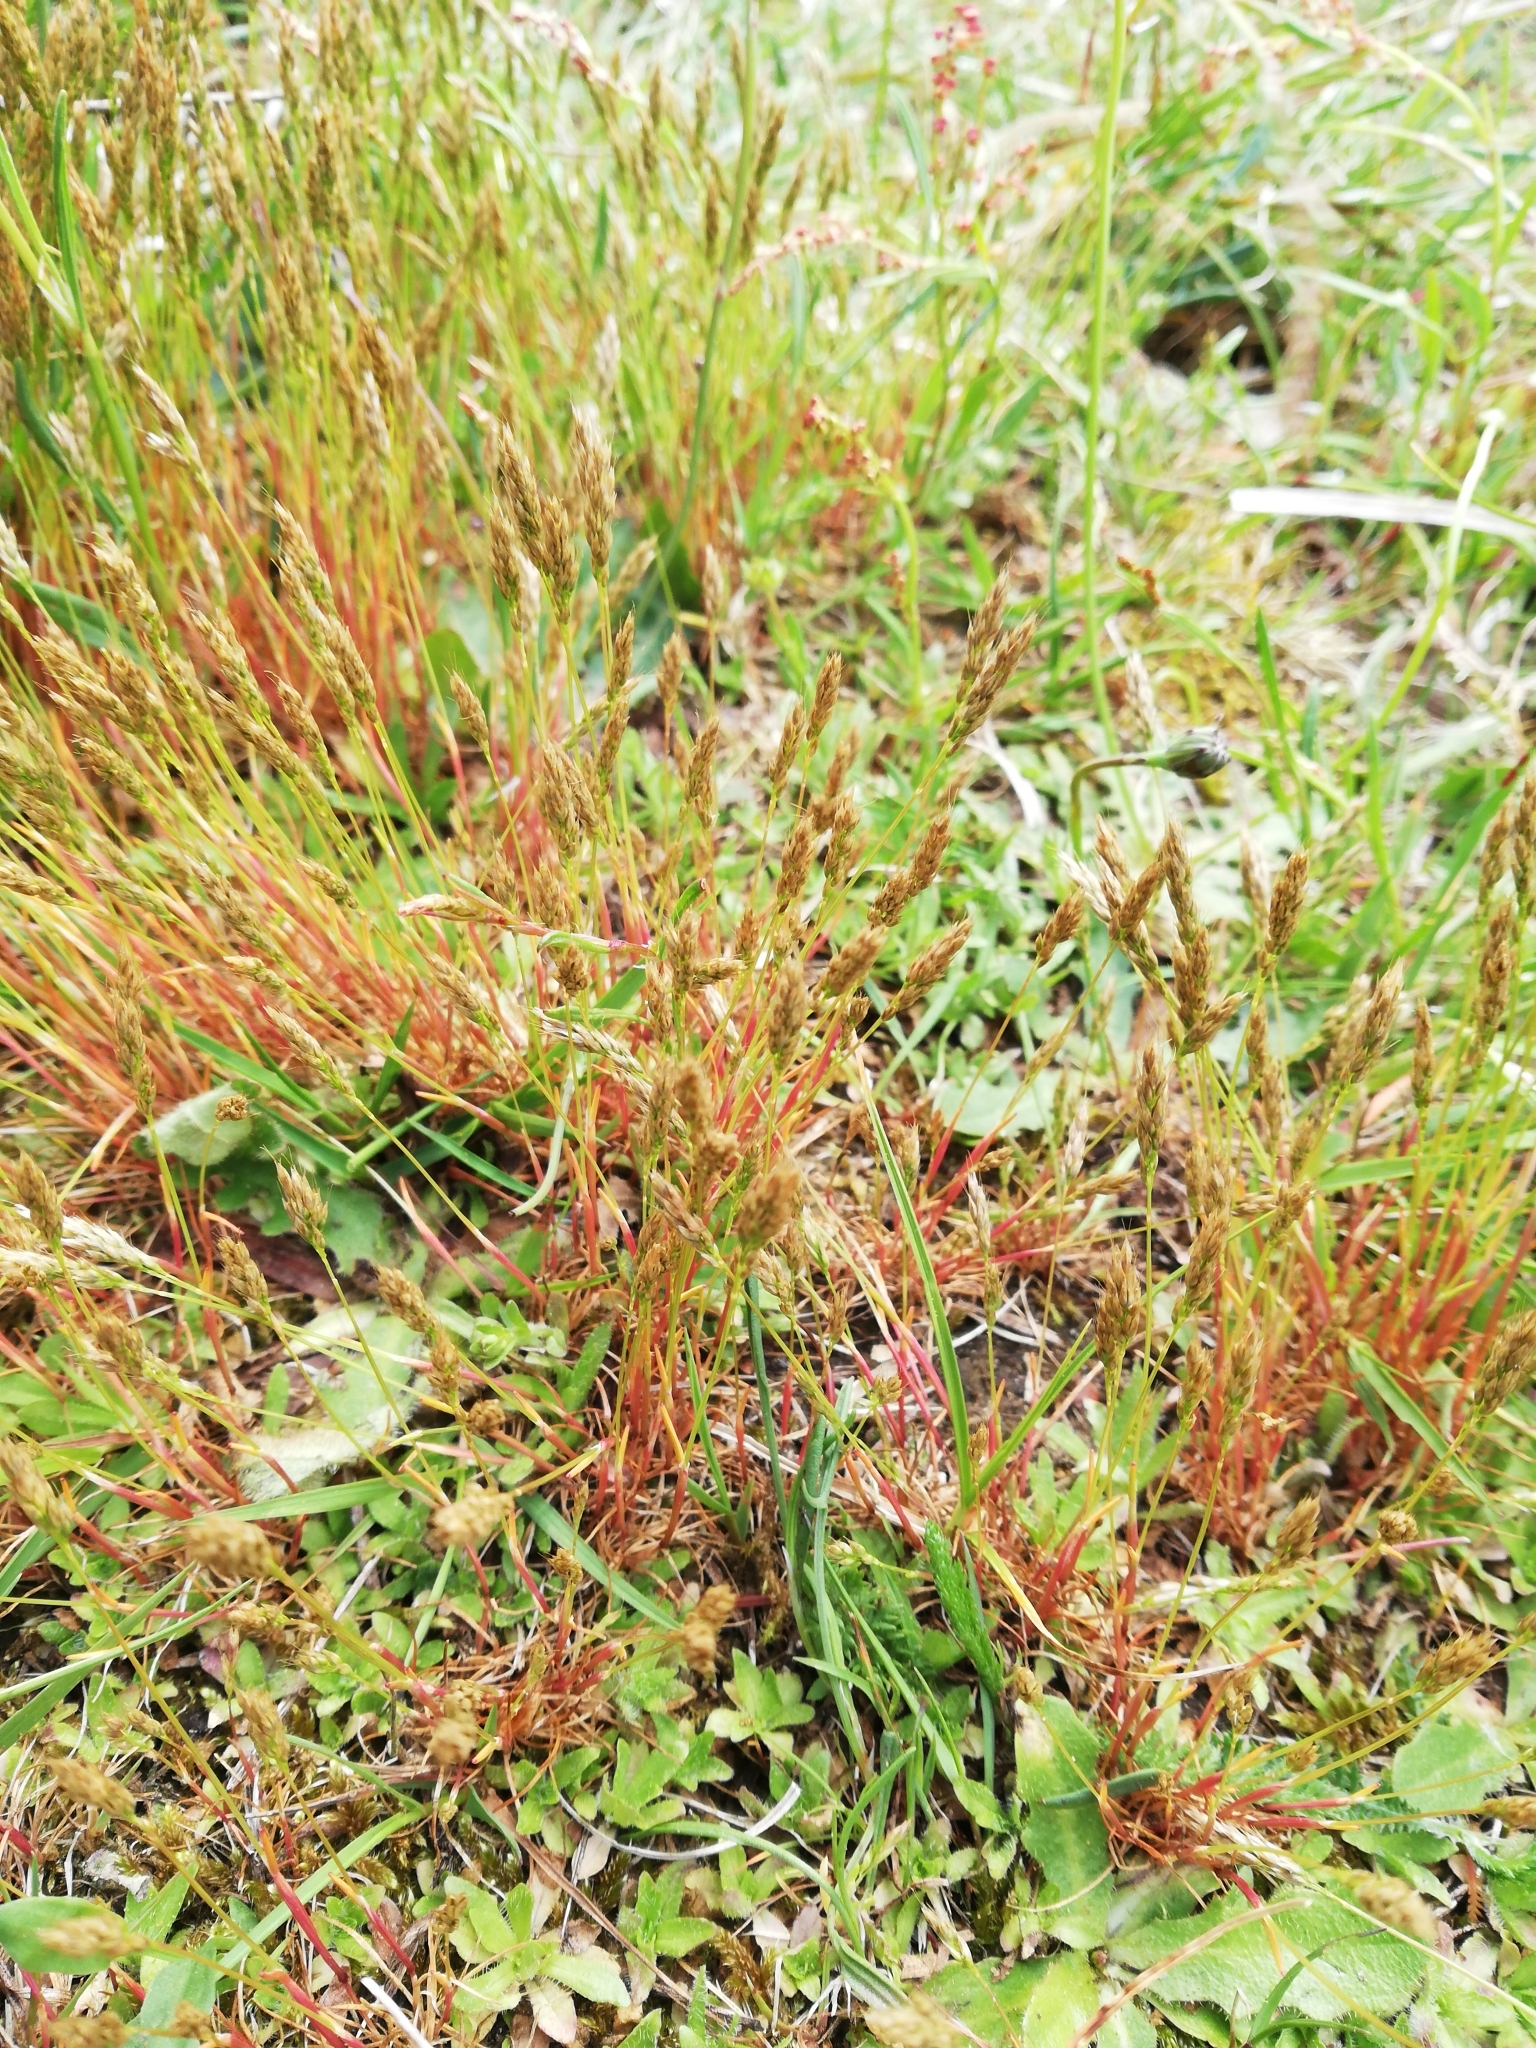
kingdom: Plantae
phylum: Tracheophyta
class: Liliopsida
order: Poales
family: Poaceae
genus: Aira
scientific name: Aira praecox
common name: Early hair-grass
